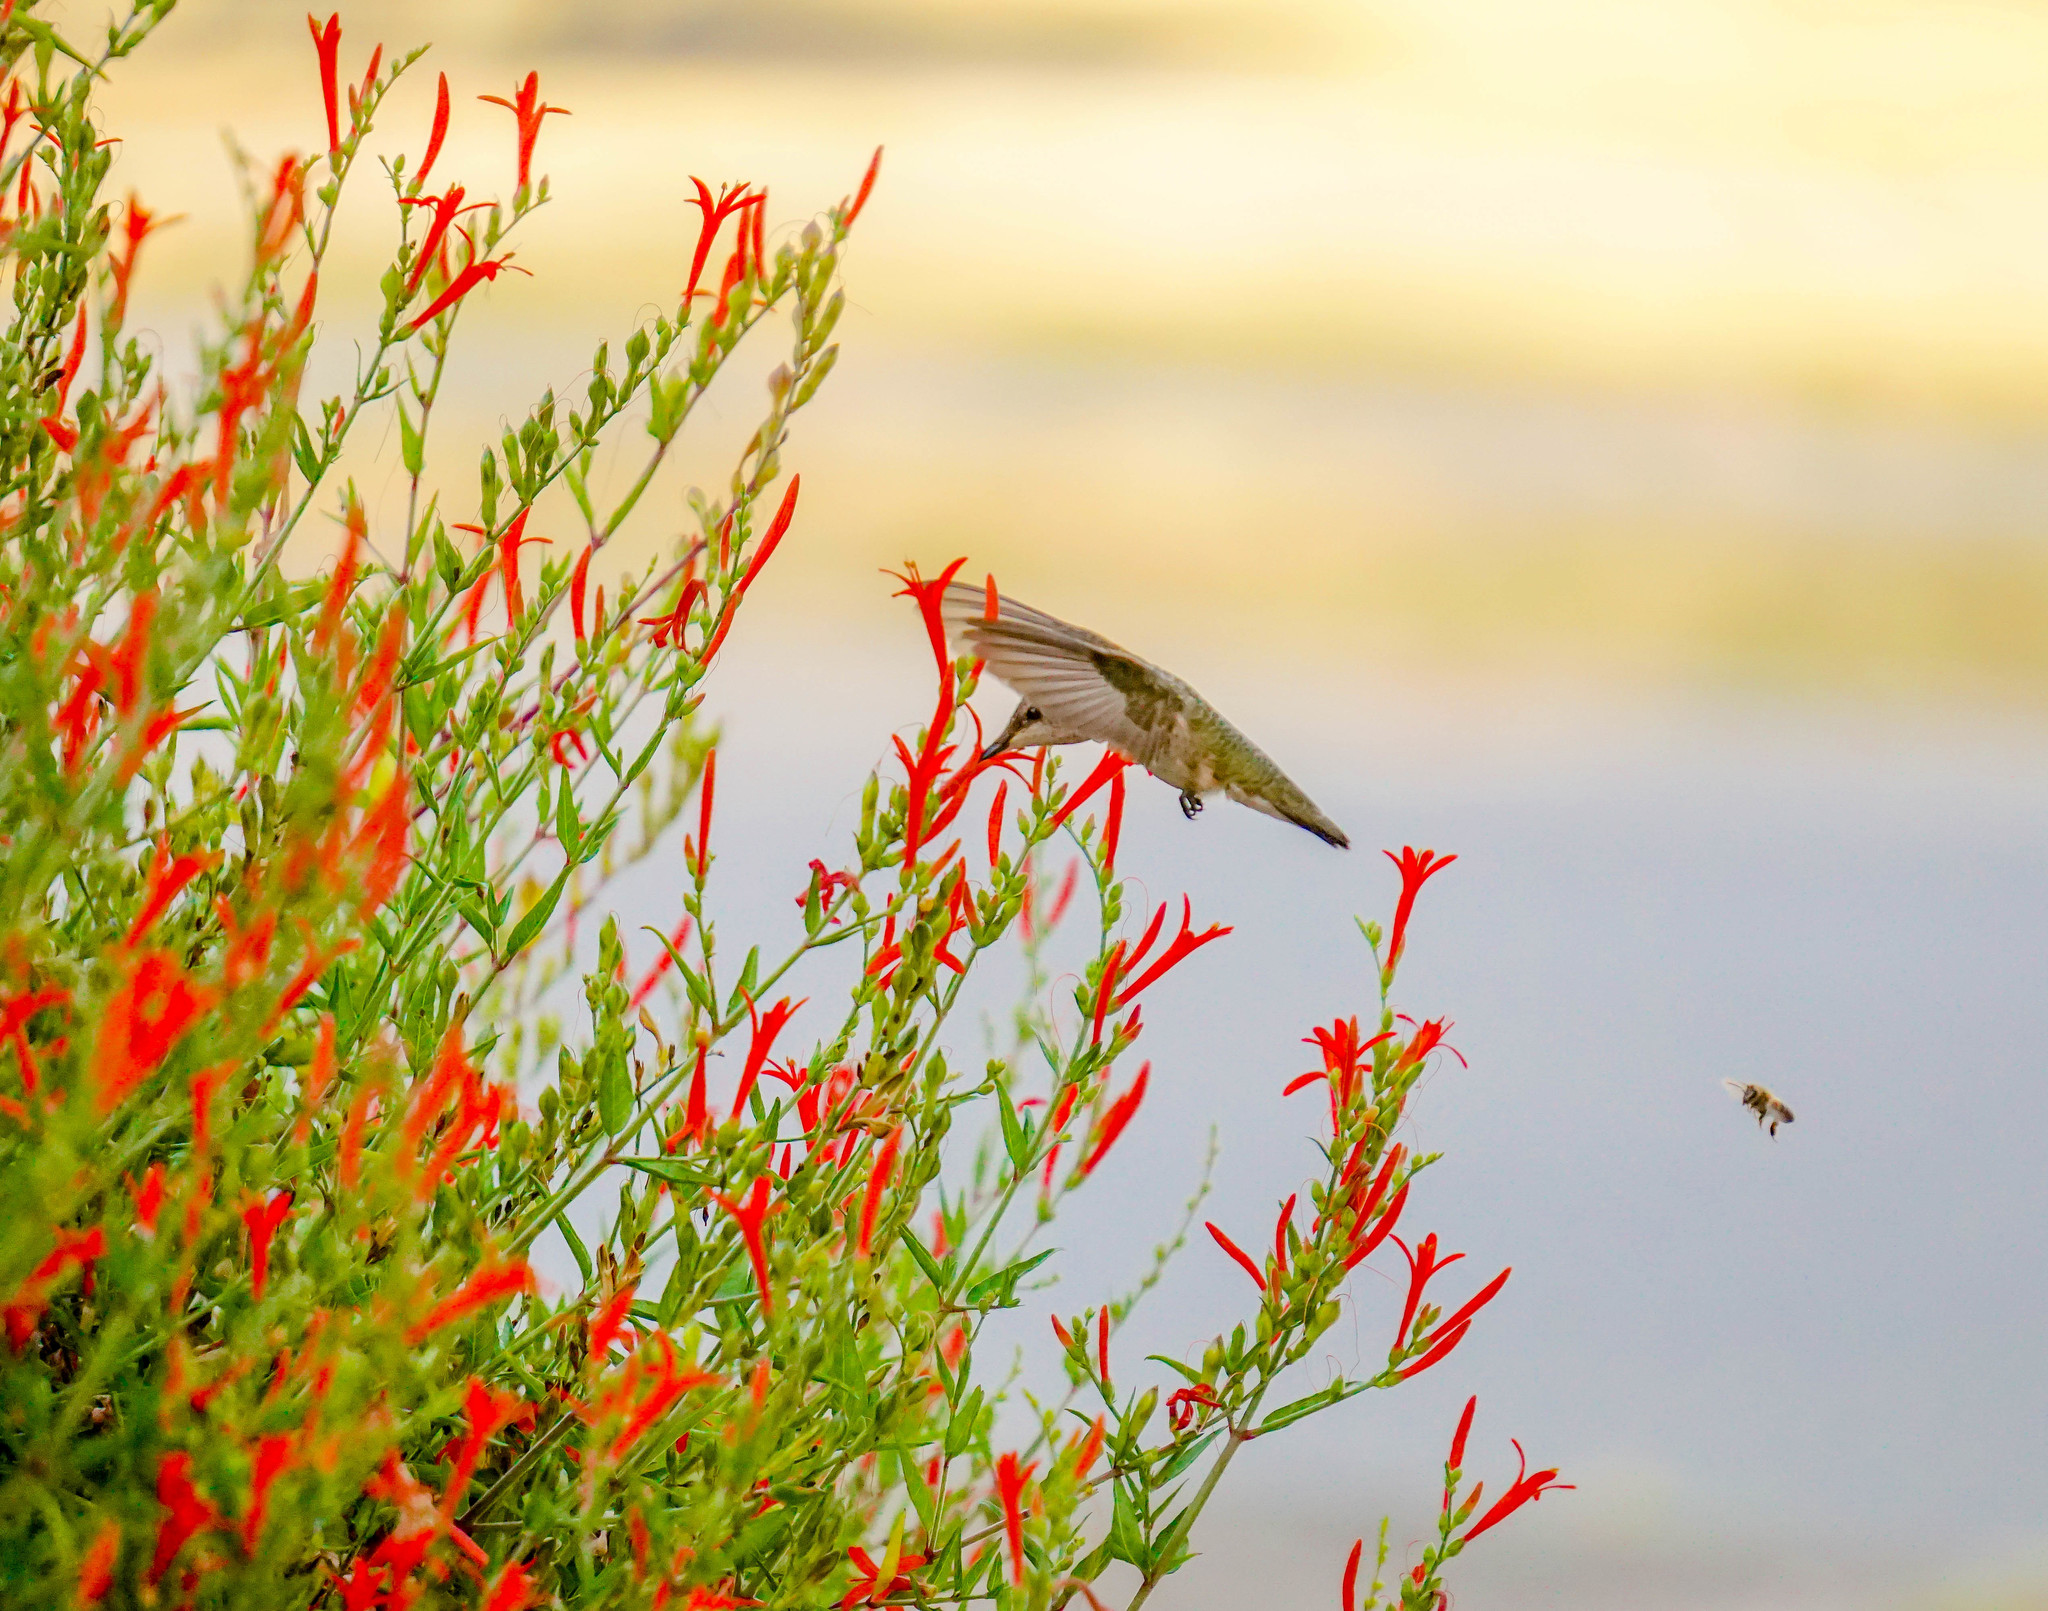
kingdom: Animalia
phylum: Chordata
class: Aves
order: Apodiformes
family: Trochilidae
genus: Archilochus
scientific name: Archilochus colubris
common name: Ruby-throated hummingbird
